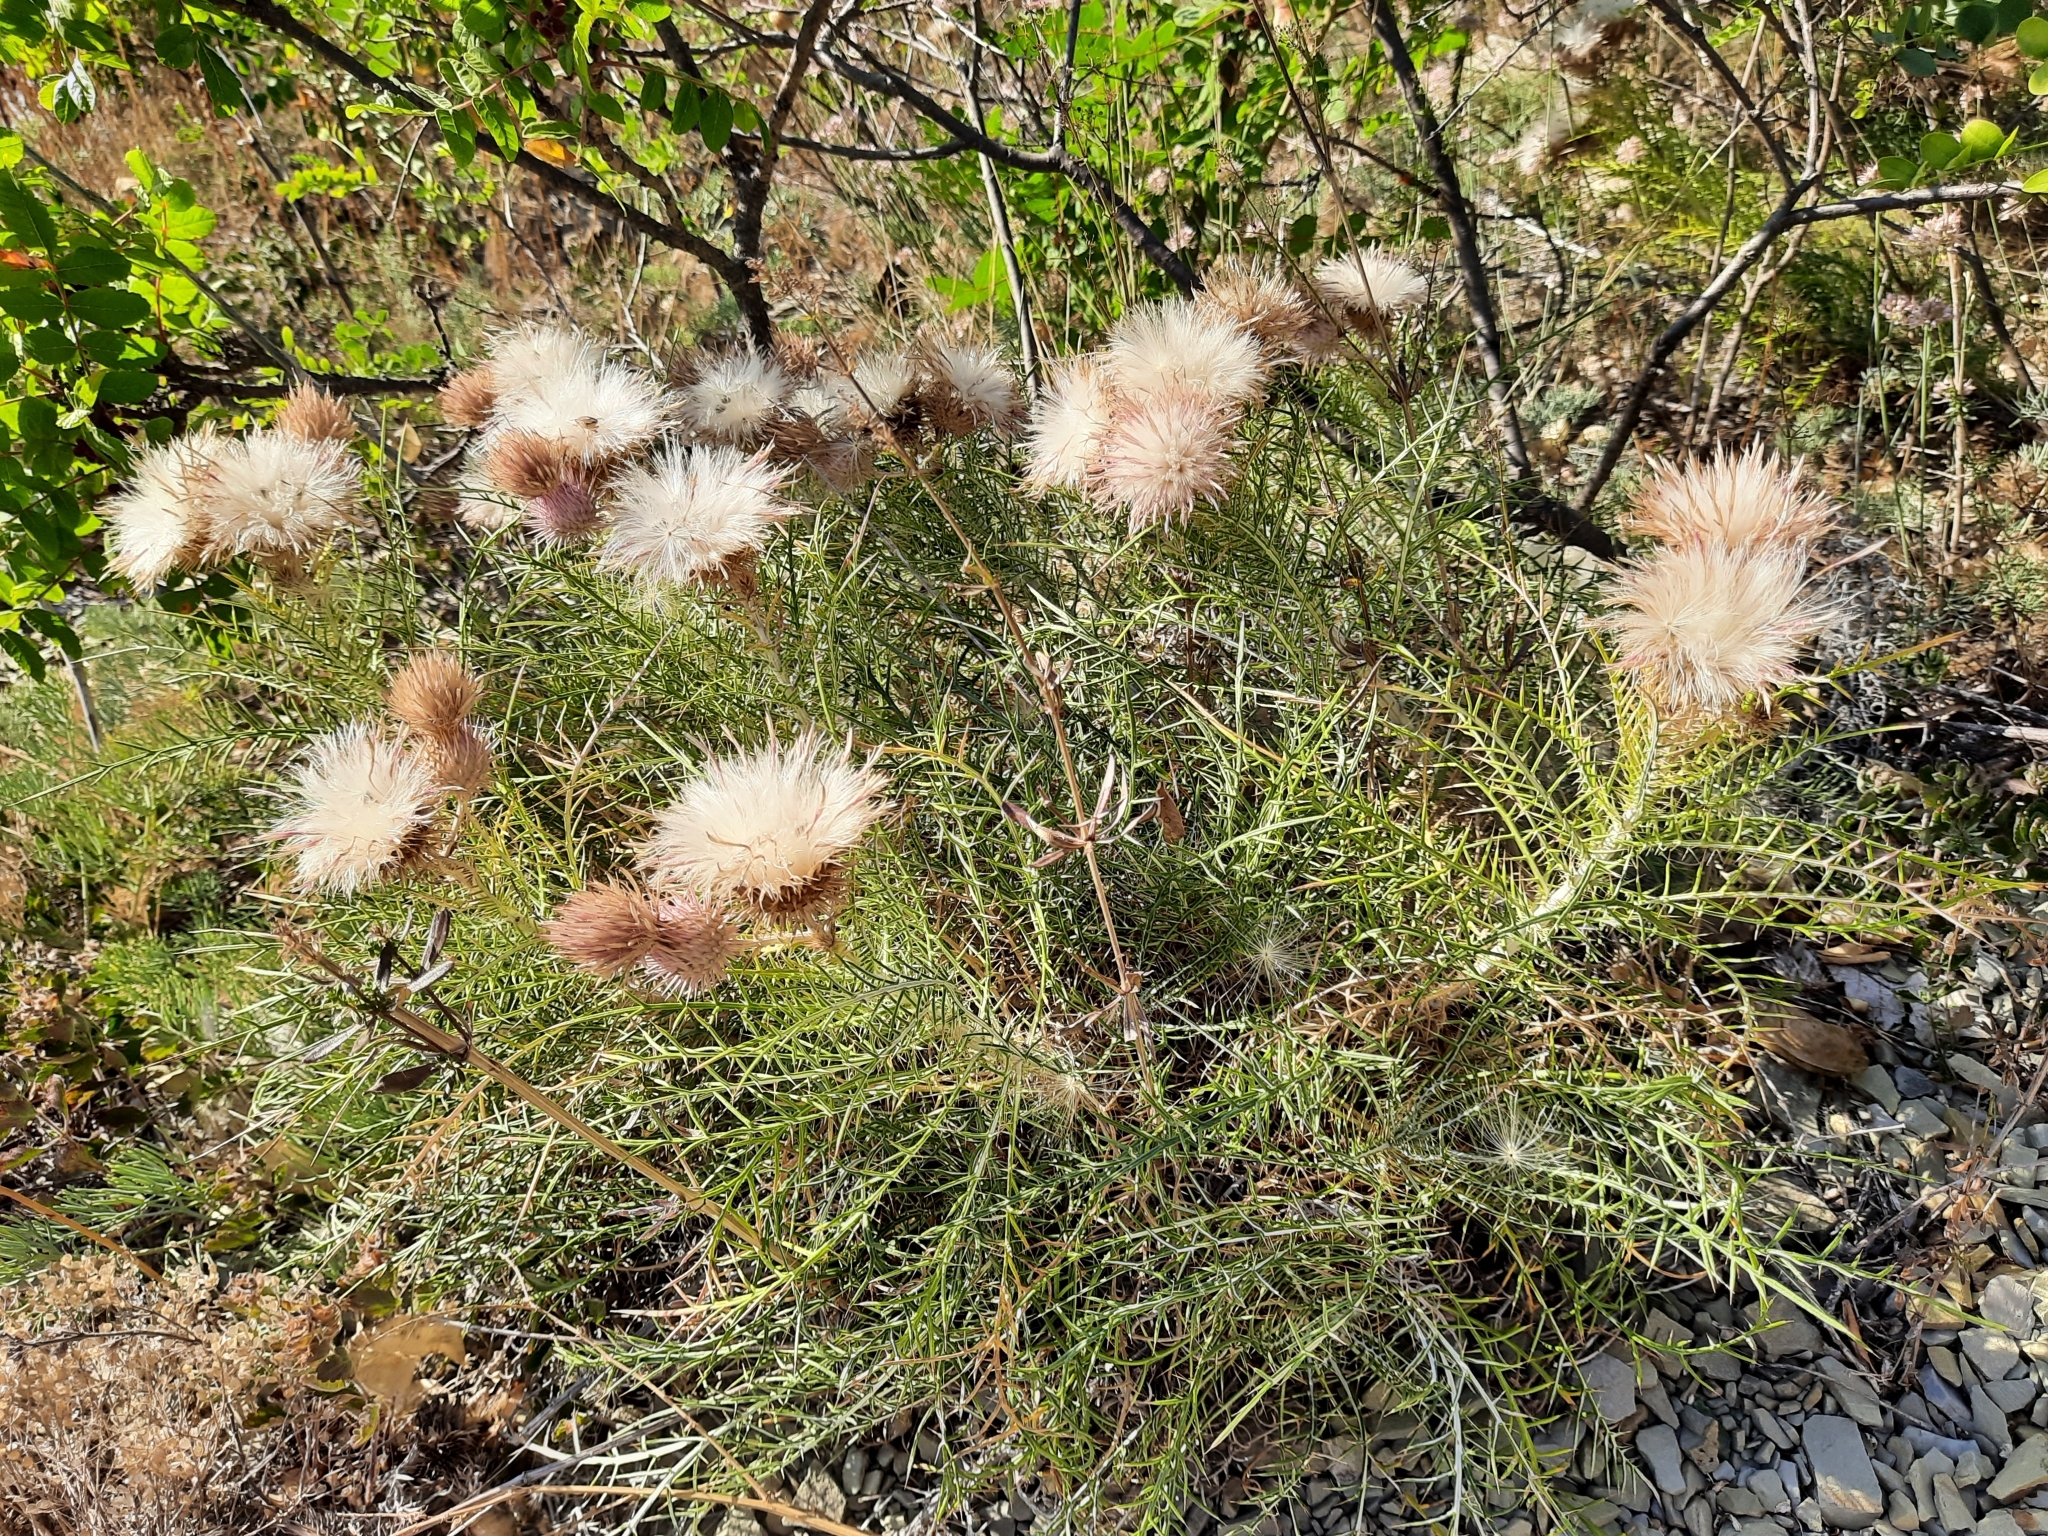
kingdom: Plantae
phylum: Tracheophyta
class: Magnoliopsida
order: Asterales
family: Asteraceae
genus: Ptilostemon
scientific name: Ptilostemon echinocephalus
